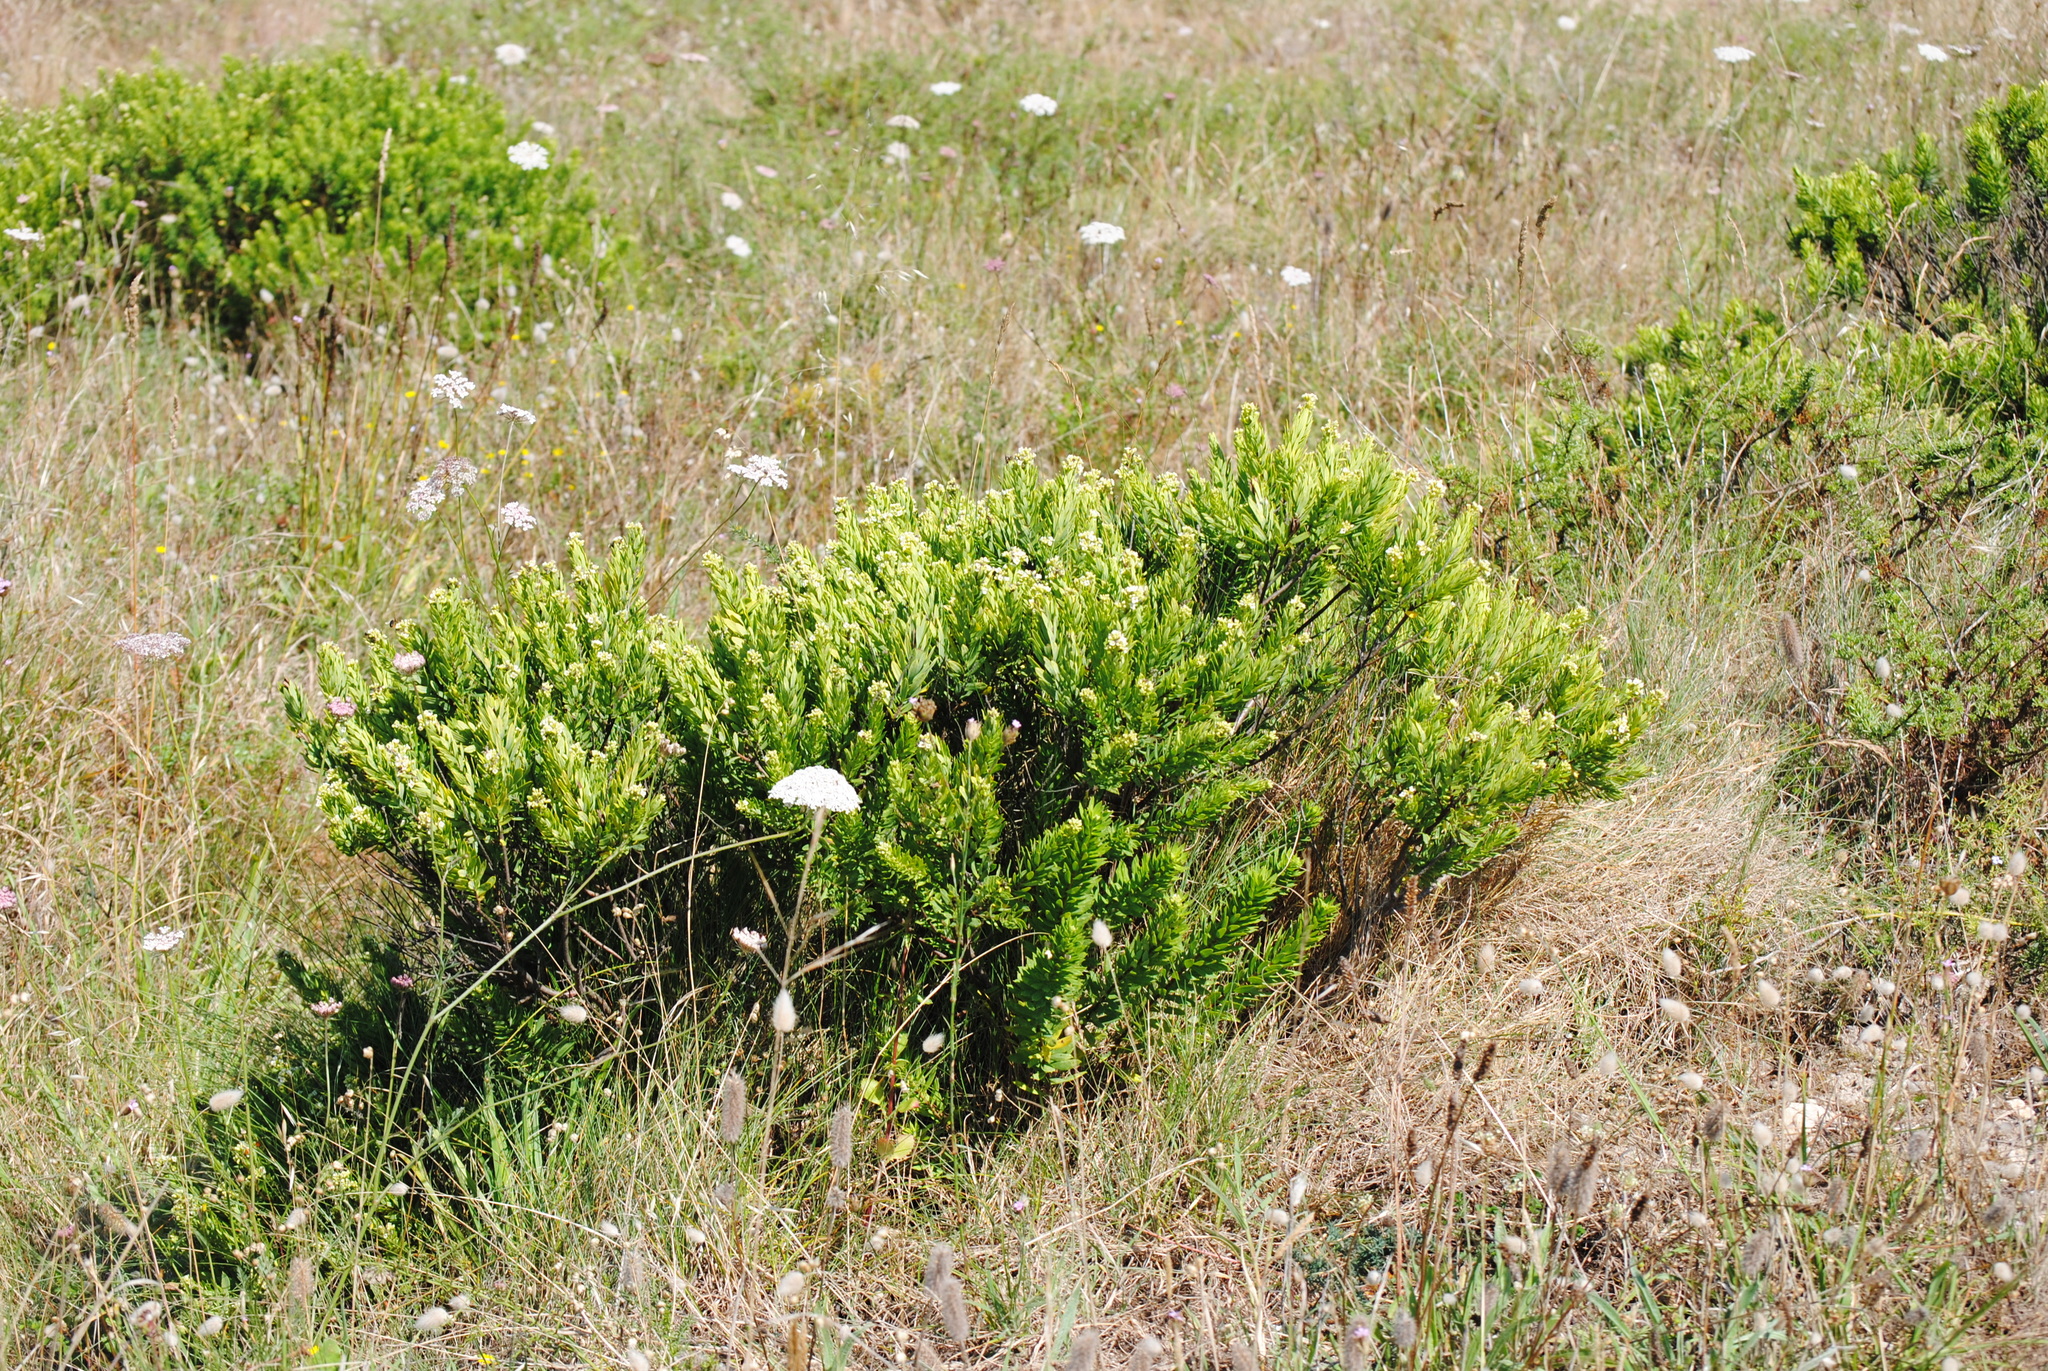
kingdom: Plantae
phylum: Tracheophyta
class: Magnoliopsida
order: Malvales
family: Thymelaeaceae
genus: Daphne
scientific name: Daphne gnidium
